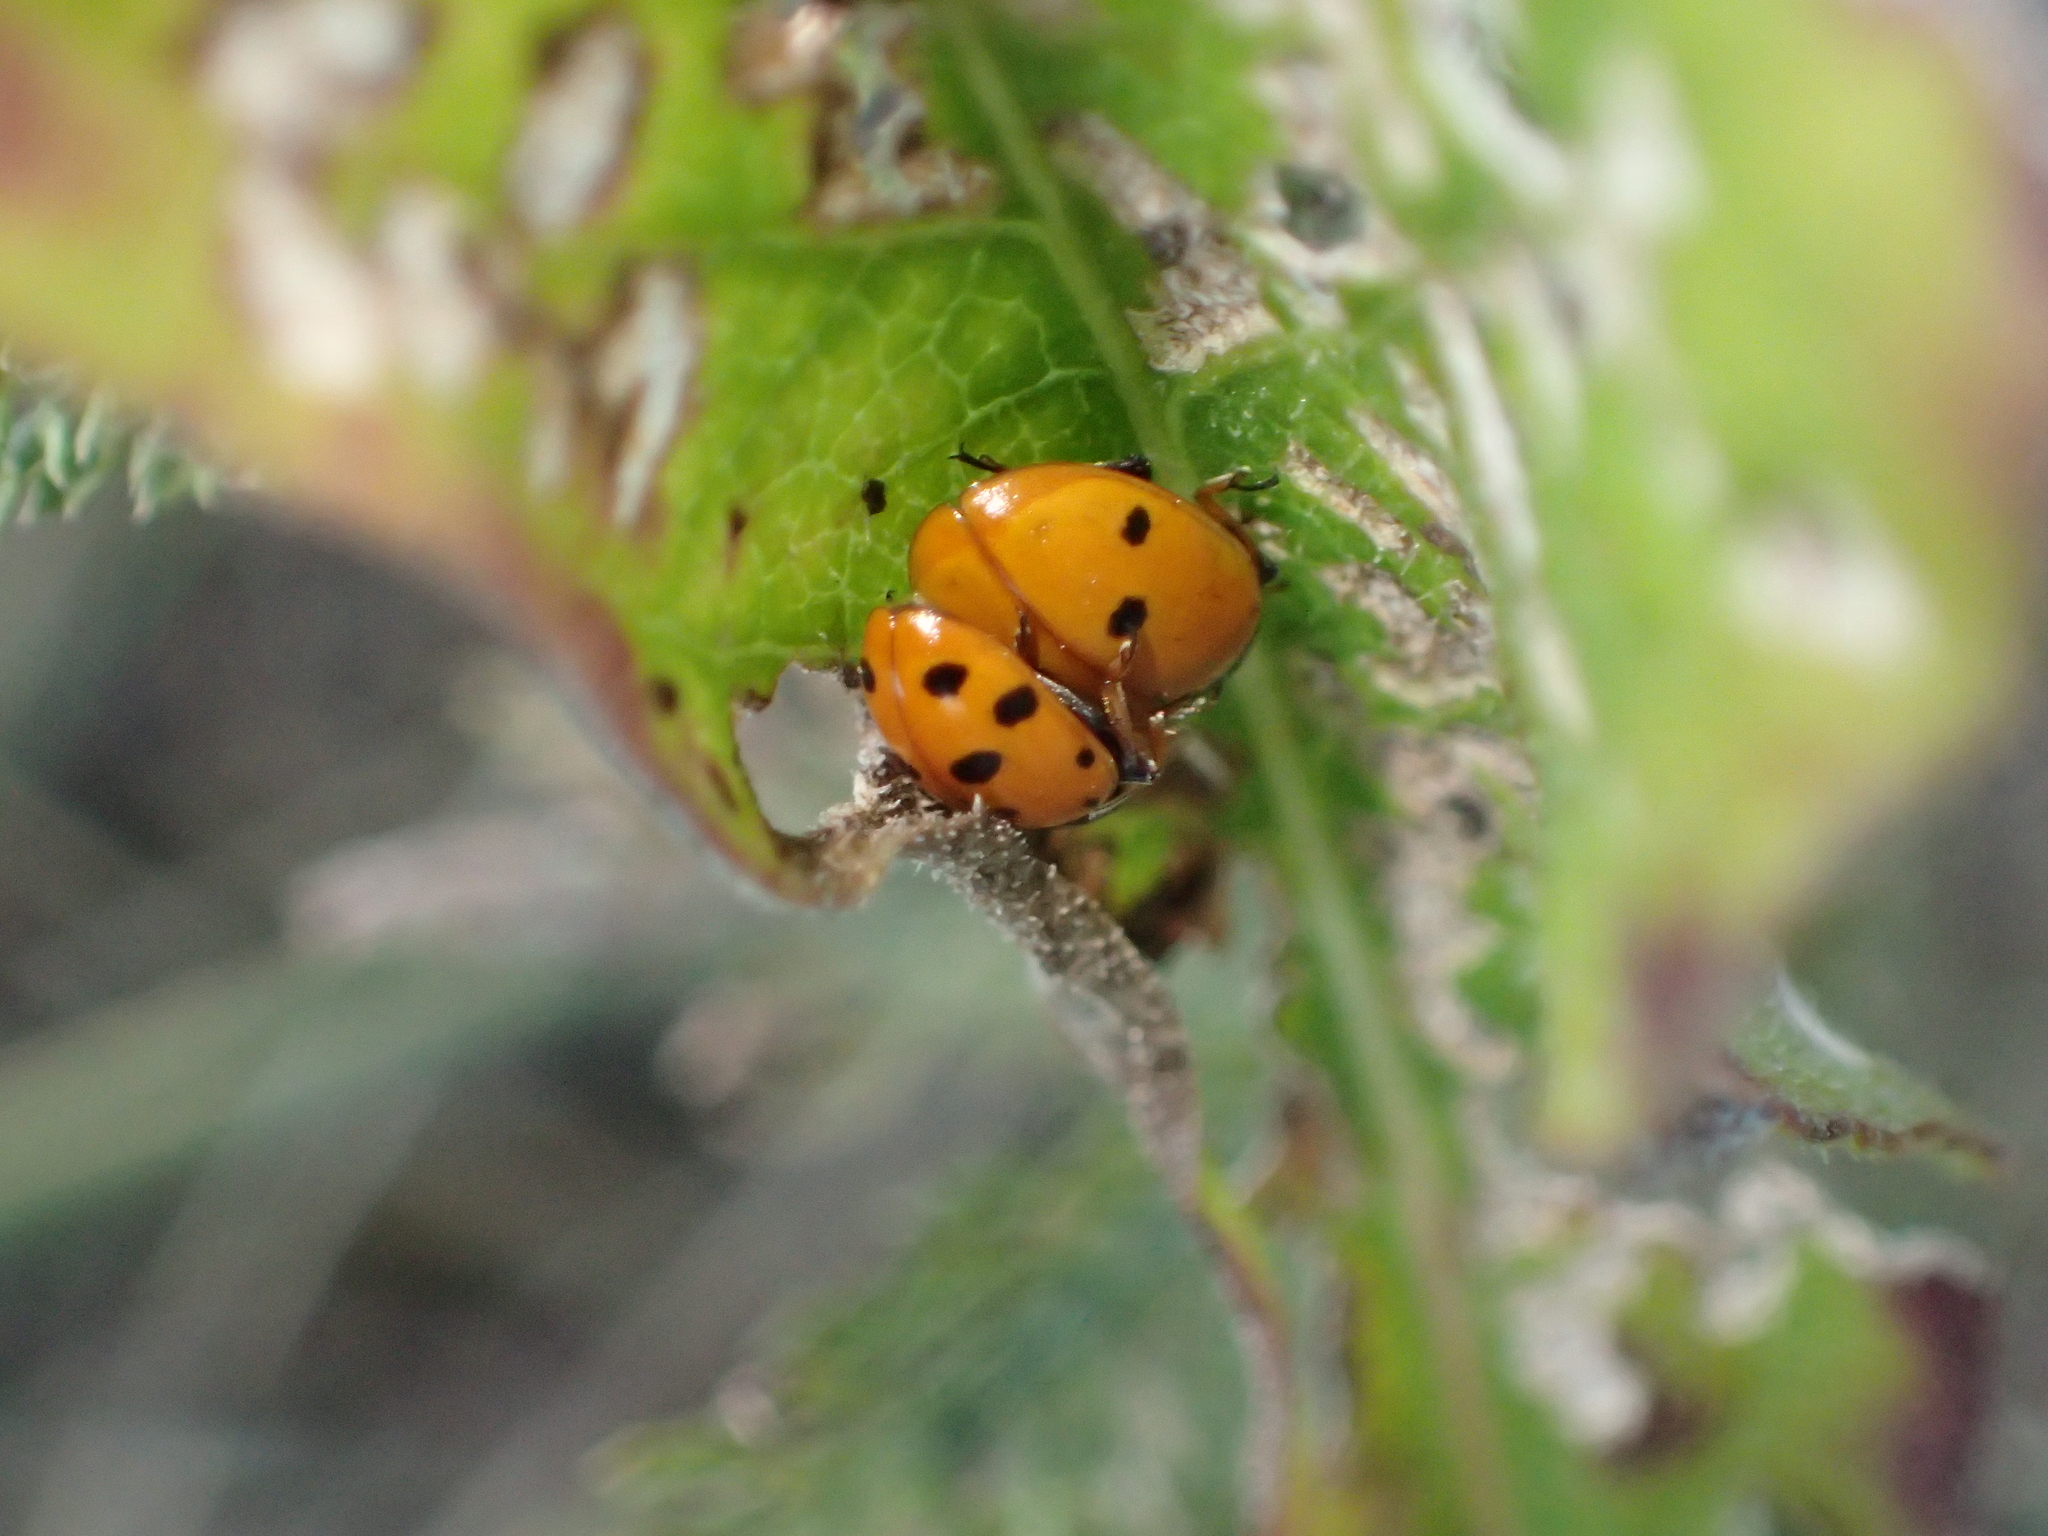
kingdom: Animalia
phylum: Arthropoda
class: Insecta
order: Coleoptera
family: Coccinellidae
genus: Hippodamia
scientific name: Hippodamia variegata
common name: Ladybird beetle
